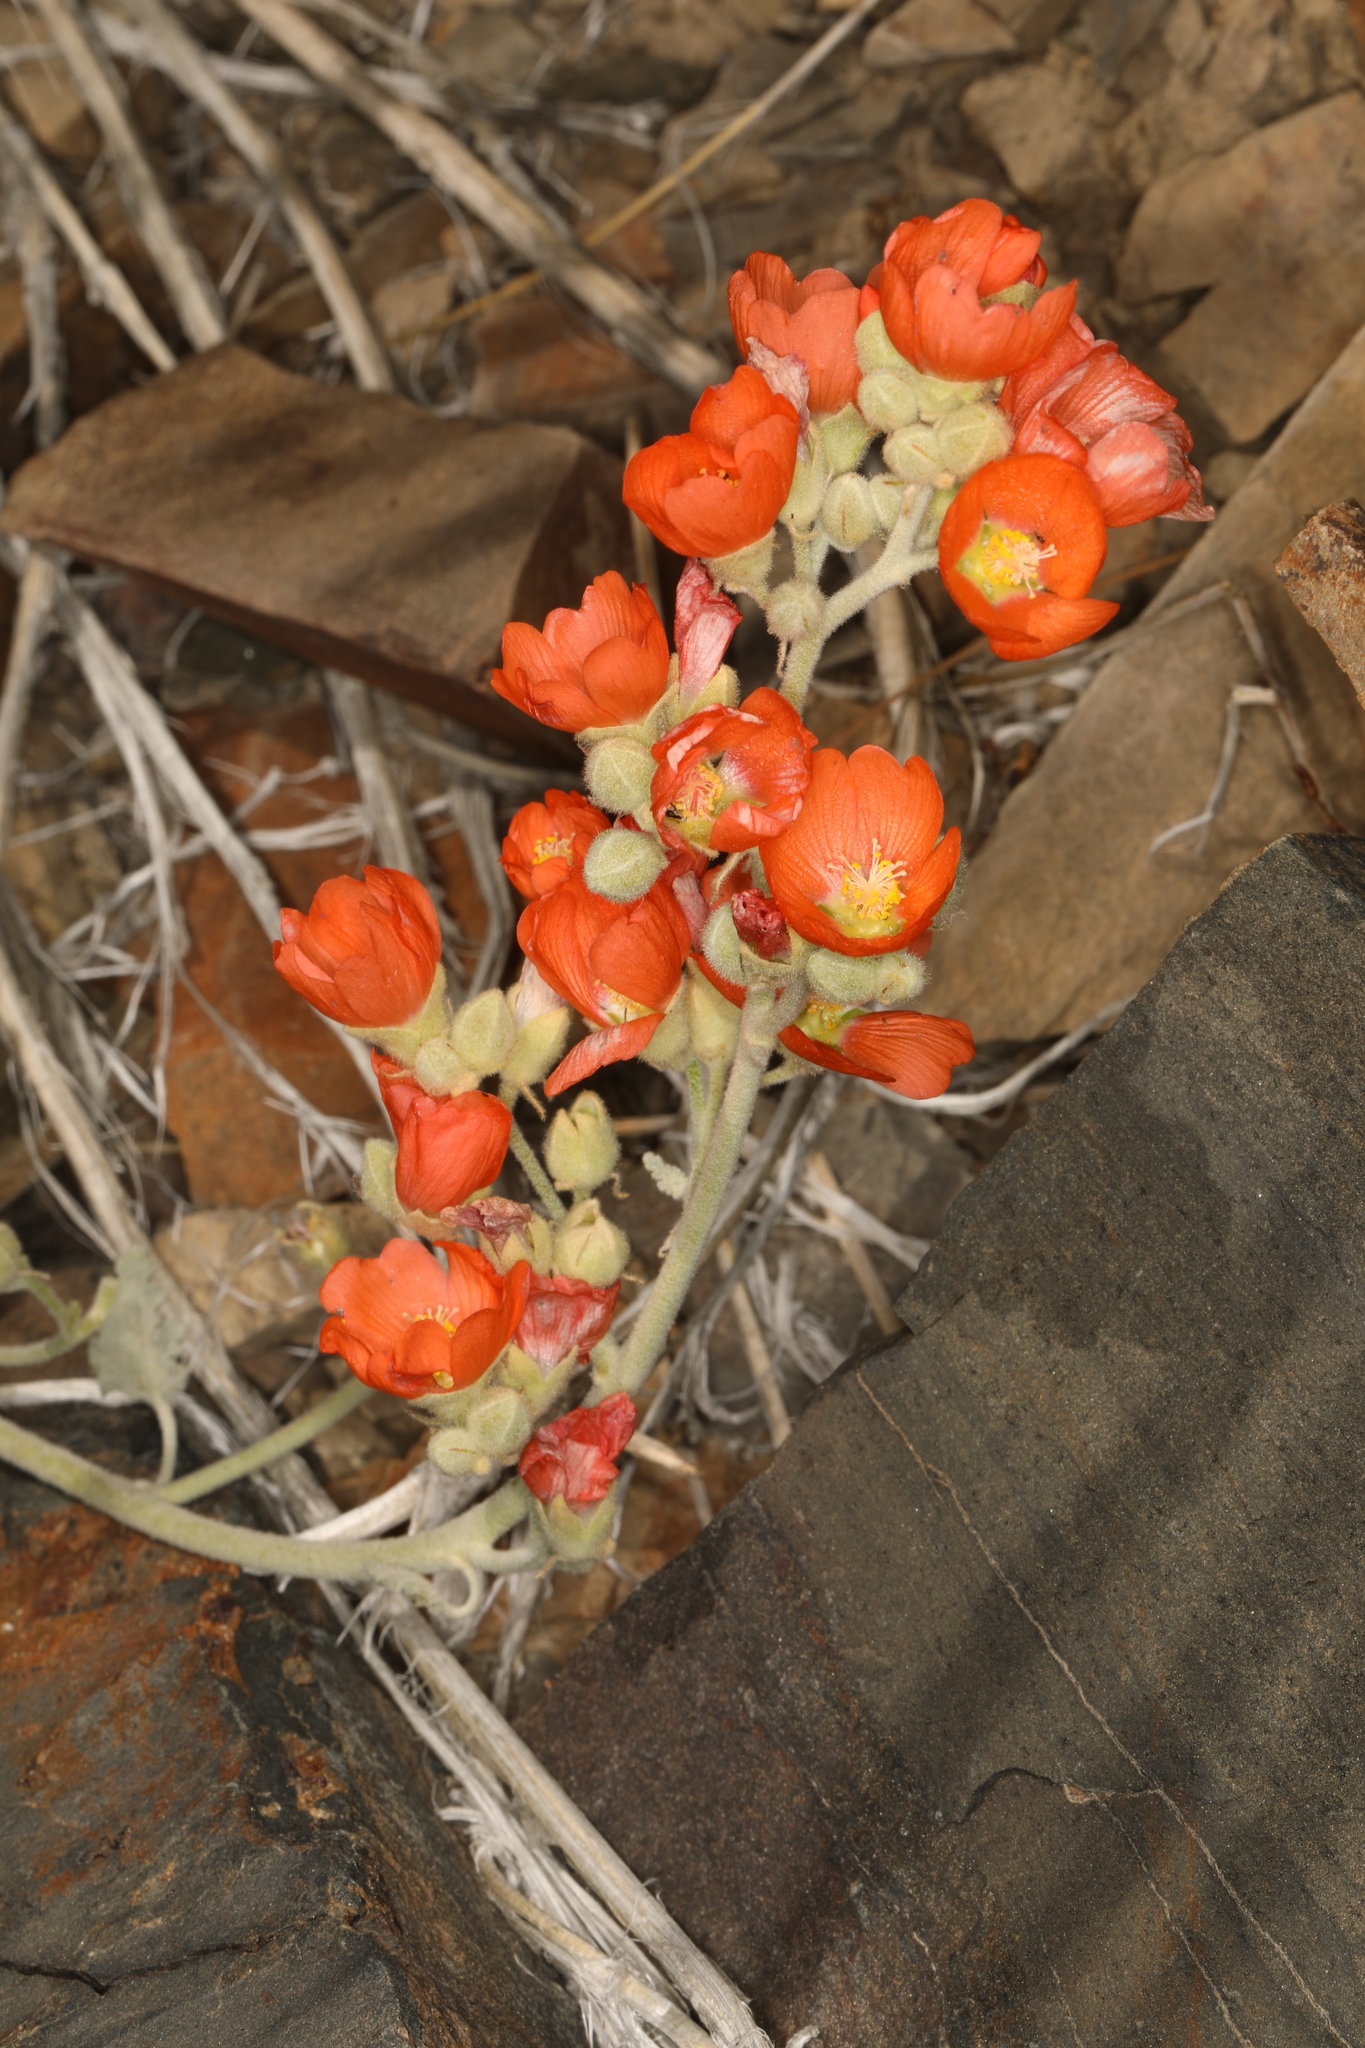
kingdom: Plantae
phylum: Tracheophyta
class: Magnoliopsida
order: Malvales
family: Malvaceae
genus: Sphaeralcea
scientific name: Sphaeralcea ambigua
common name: Apricot globe-mallow
